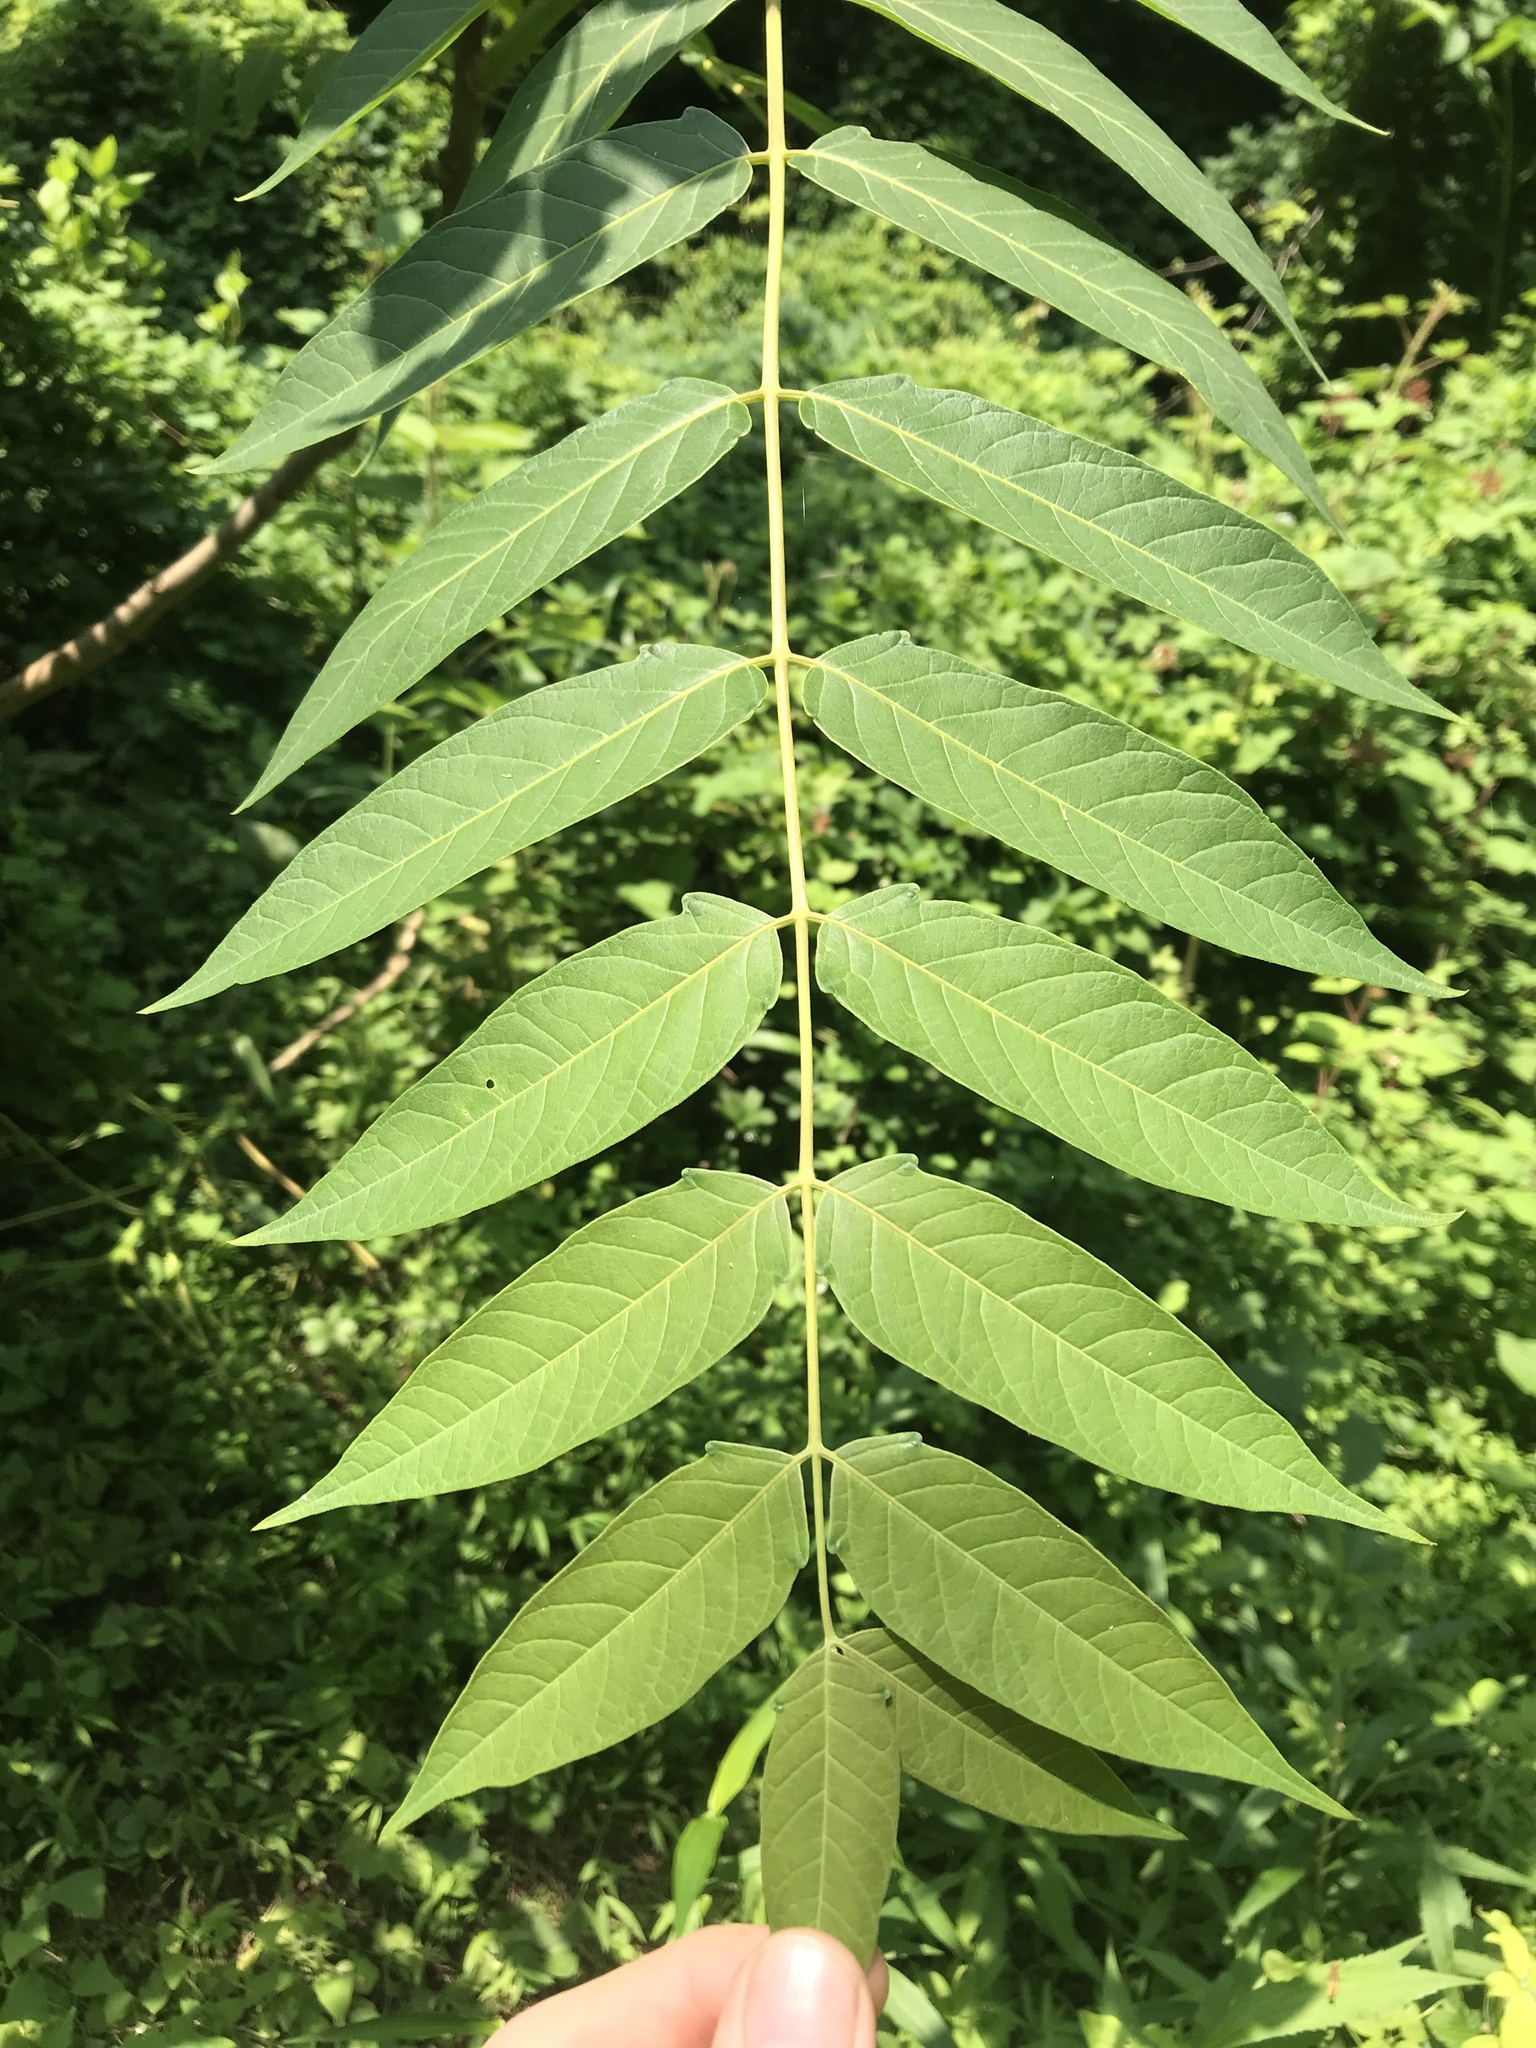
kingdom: Plantae
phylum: Tracheophyta
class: Magnoliopsida
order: Sapindales
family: Simaroubaceae
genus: Ailanthus
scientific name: Ailanthus altissima
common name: Tree-of-heaven
